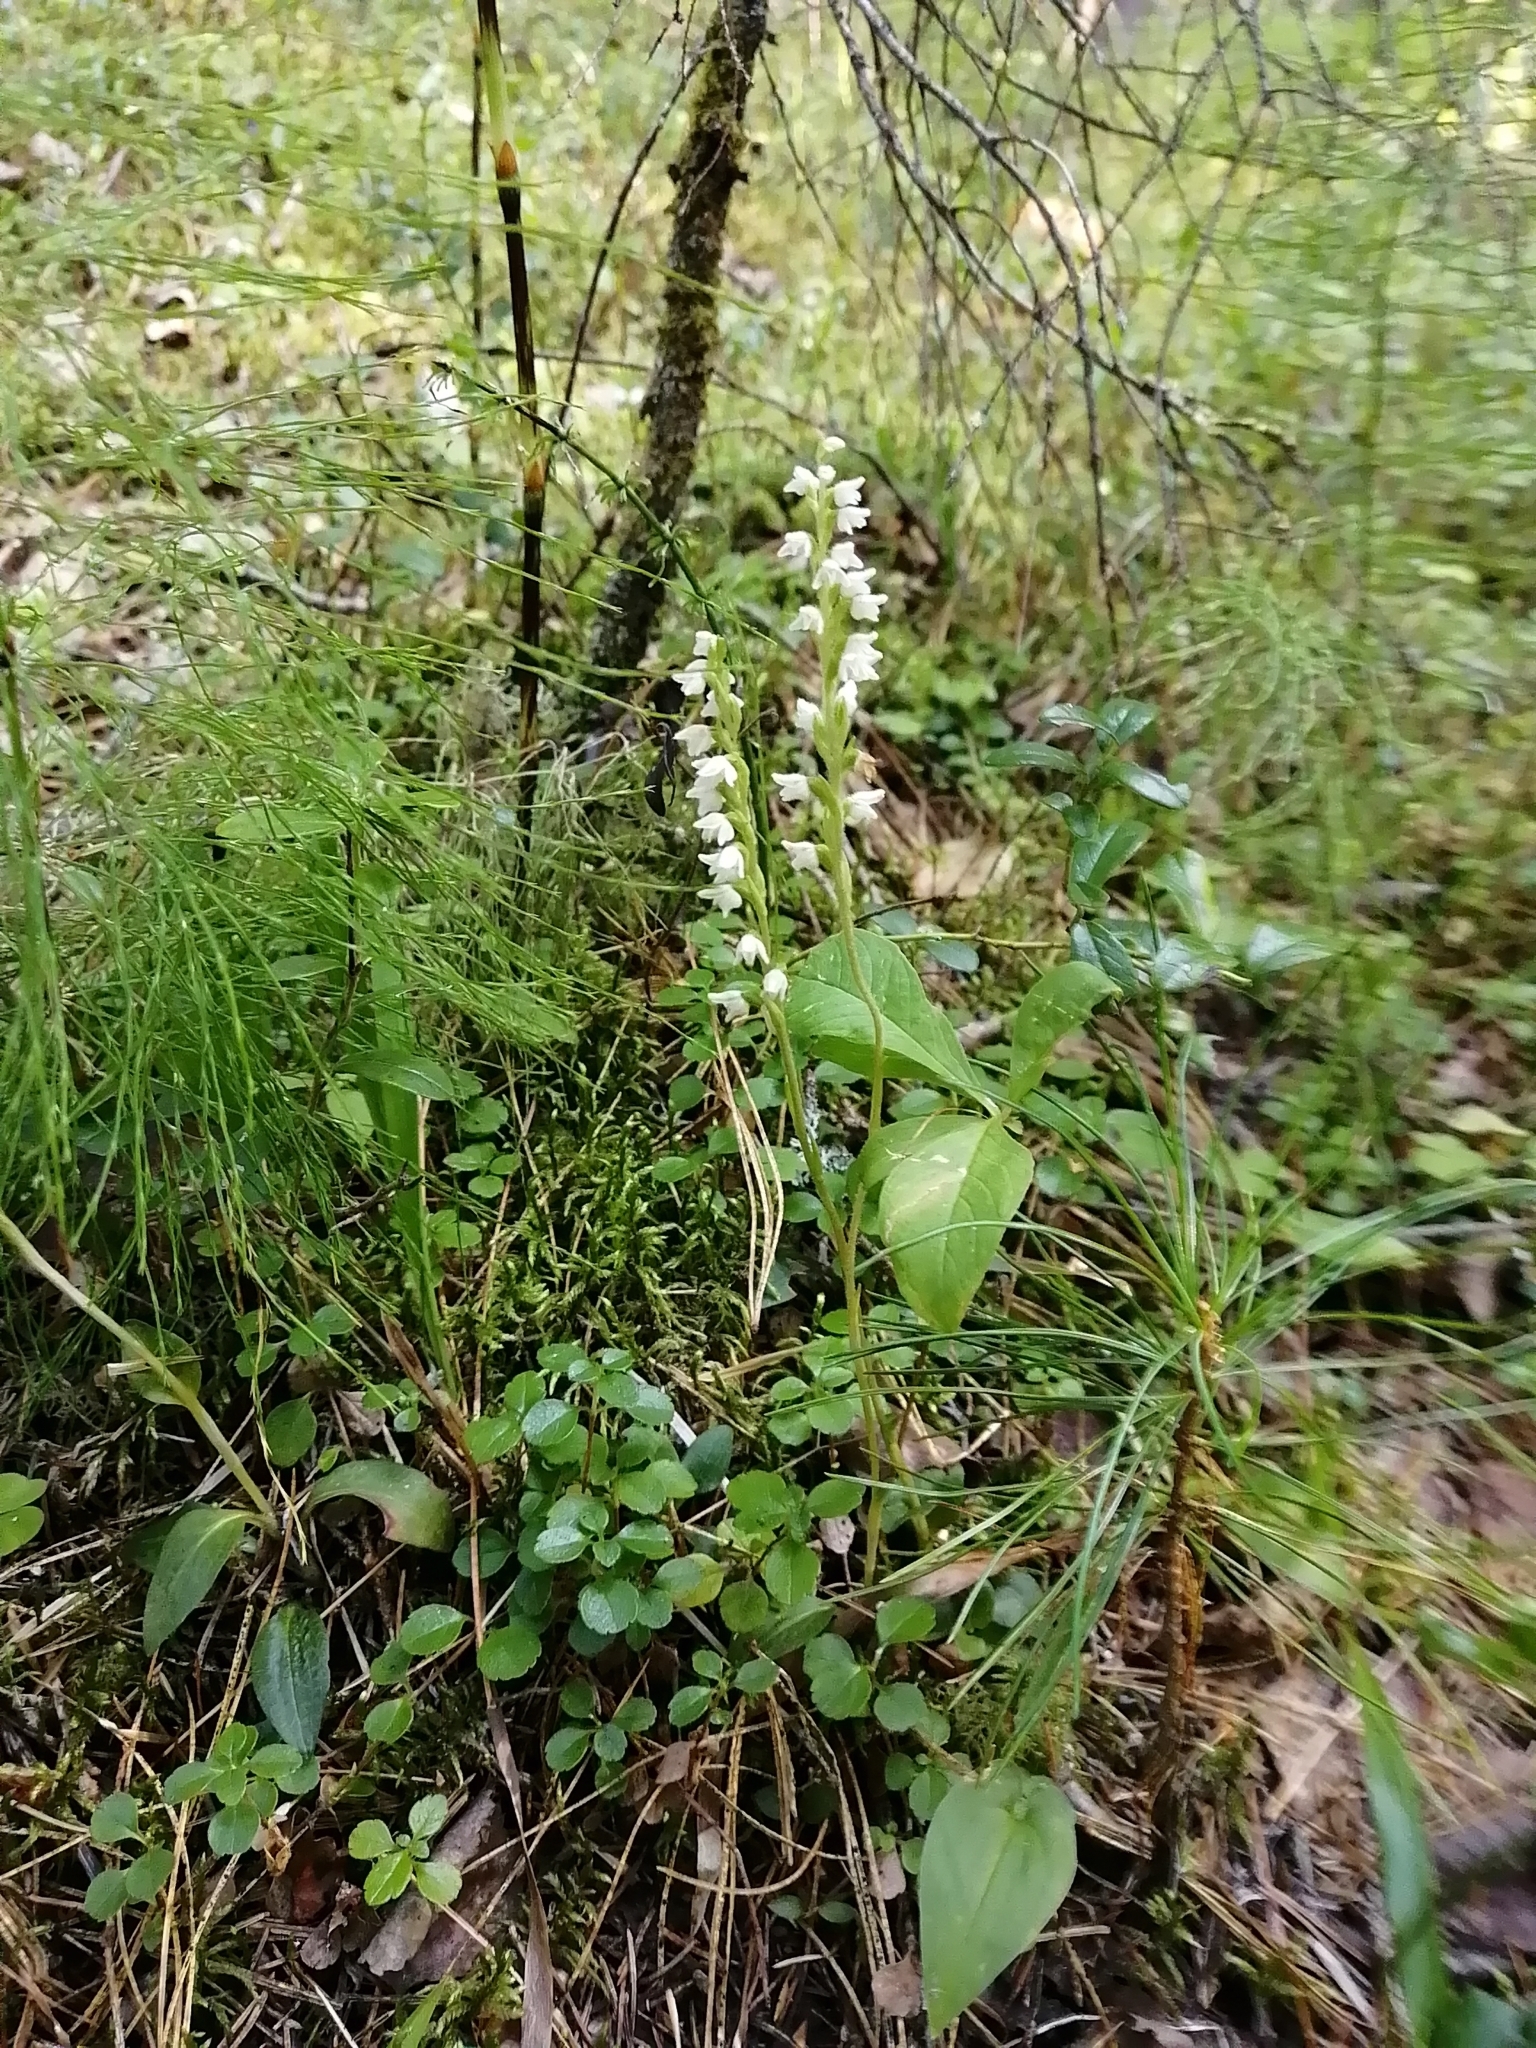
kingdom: Plantae
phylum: Tracheophyta
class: Liliopsida
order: Asparagales
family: Orchidaceae
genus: Goodyera
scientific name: Goodyera repens
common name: Creeping lady's-tresses
